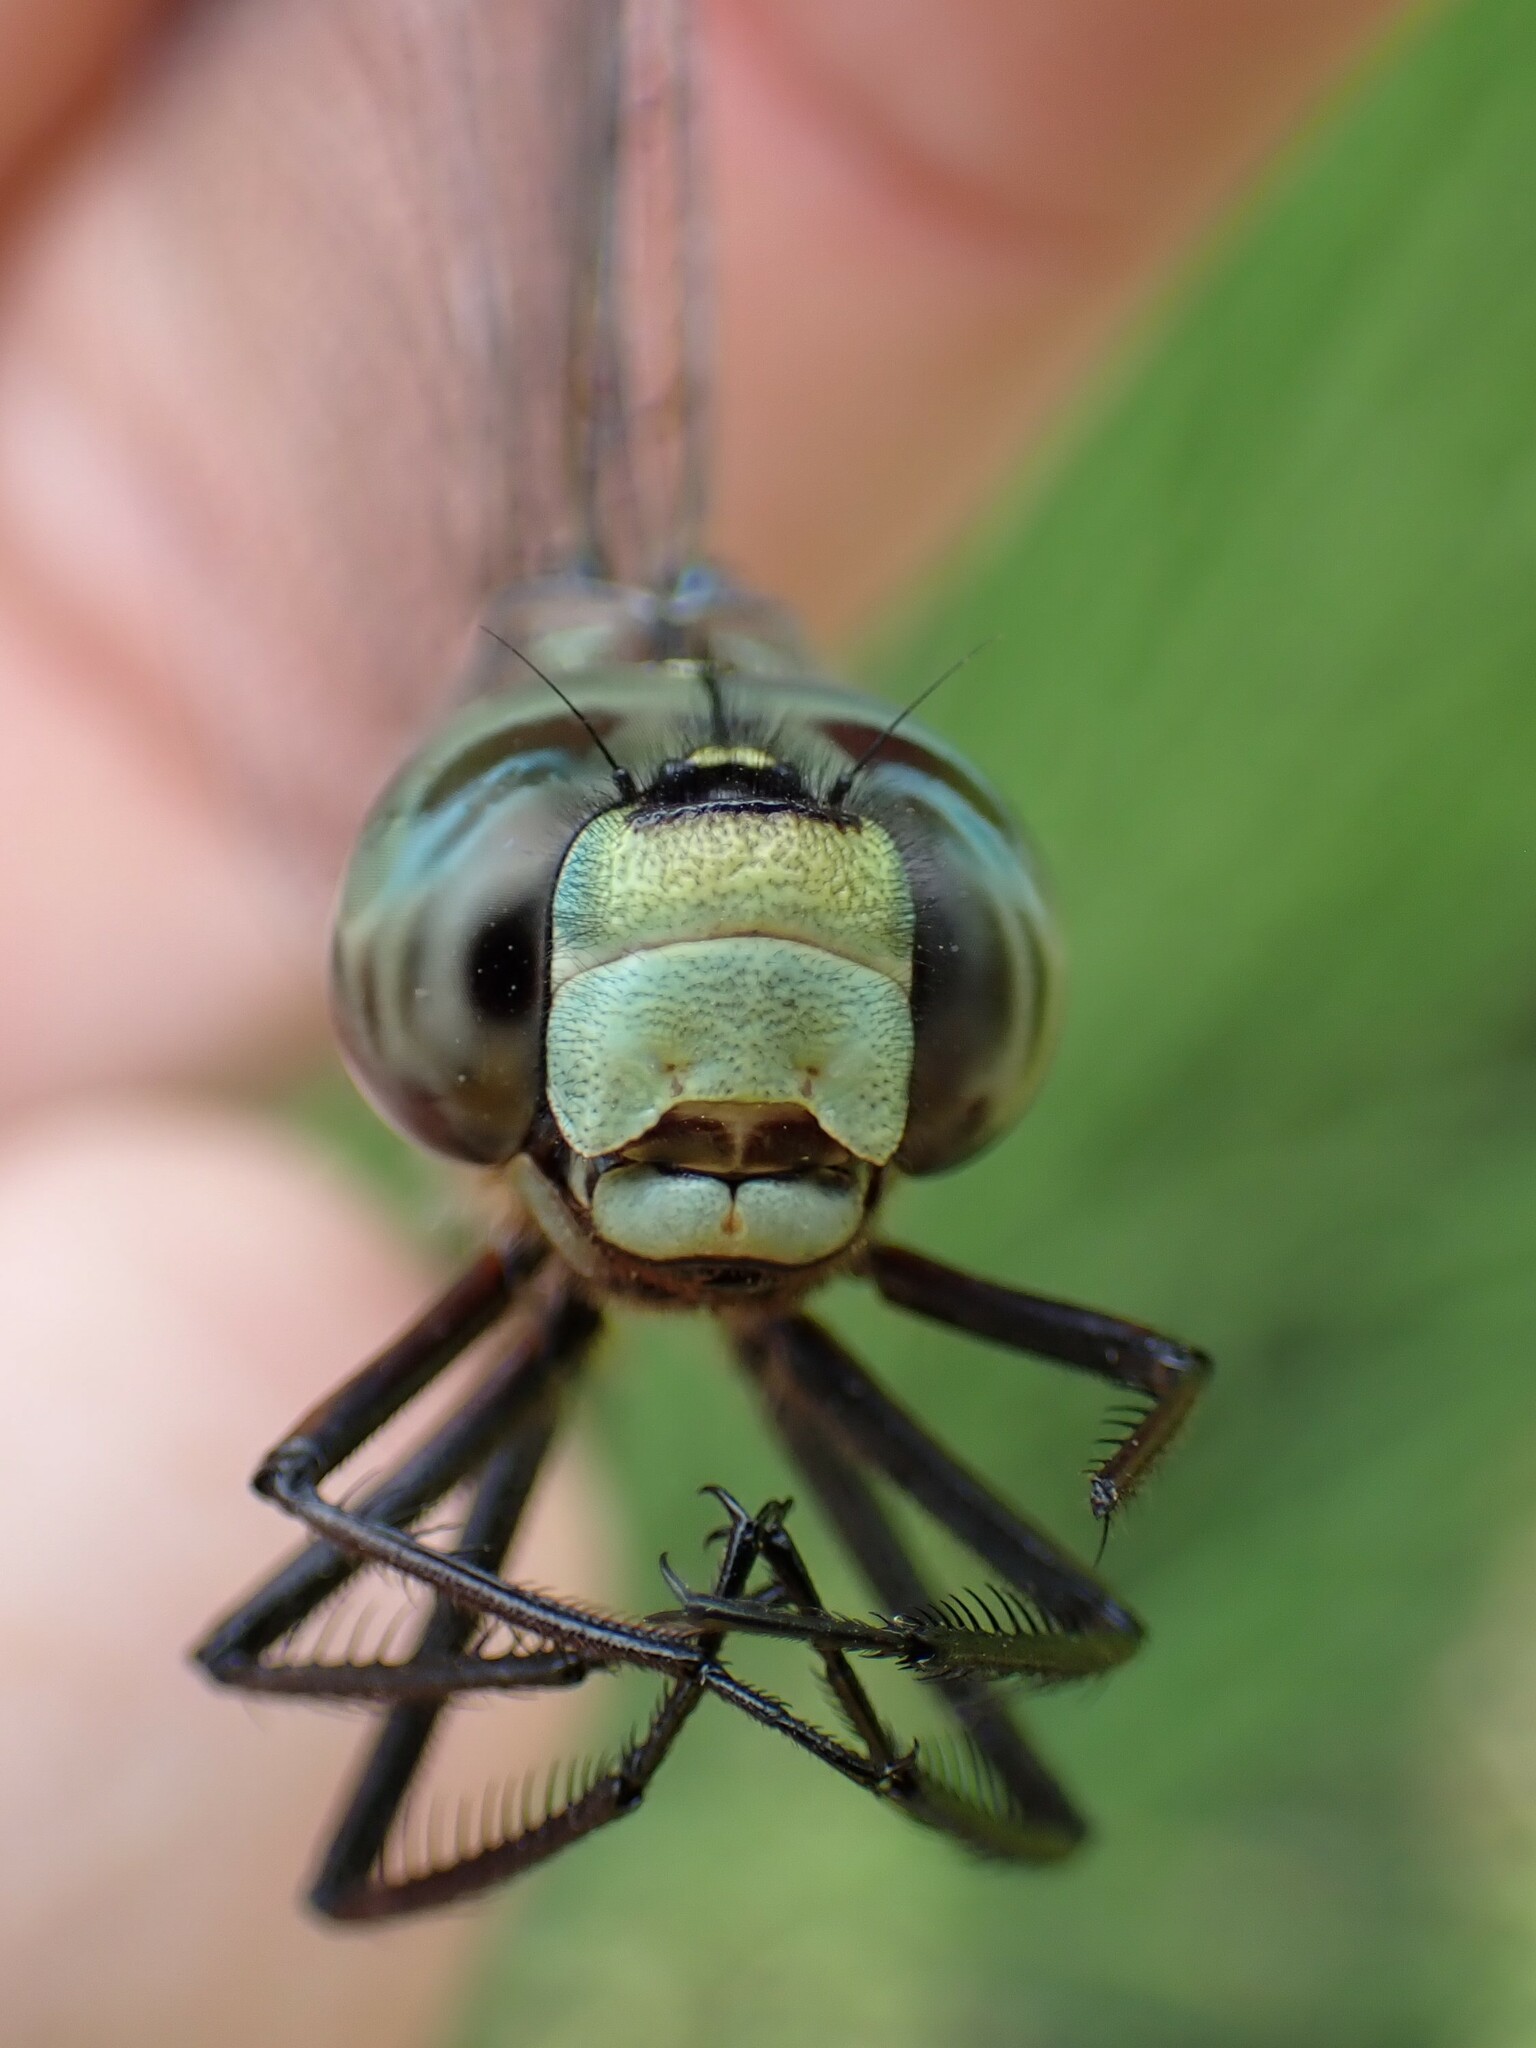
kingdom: Animalia
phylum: Arthropoda
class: Insecta
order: Odonata
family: Aeshnidae
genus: Aeshna
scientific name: Aeshna canadensis
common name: Canada darner
